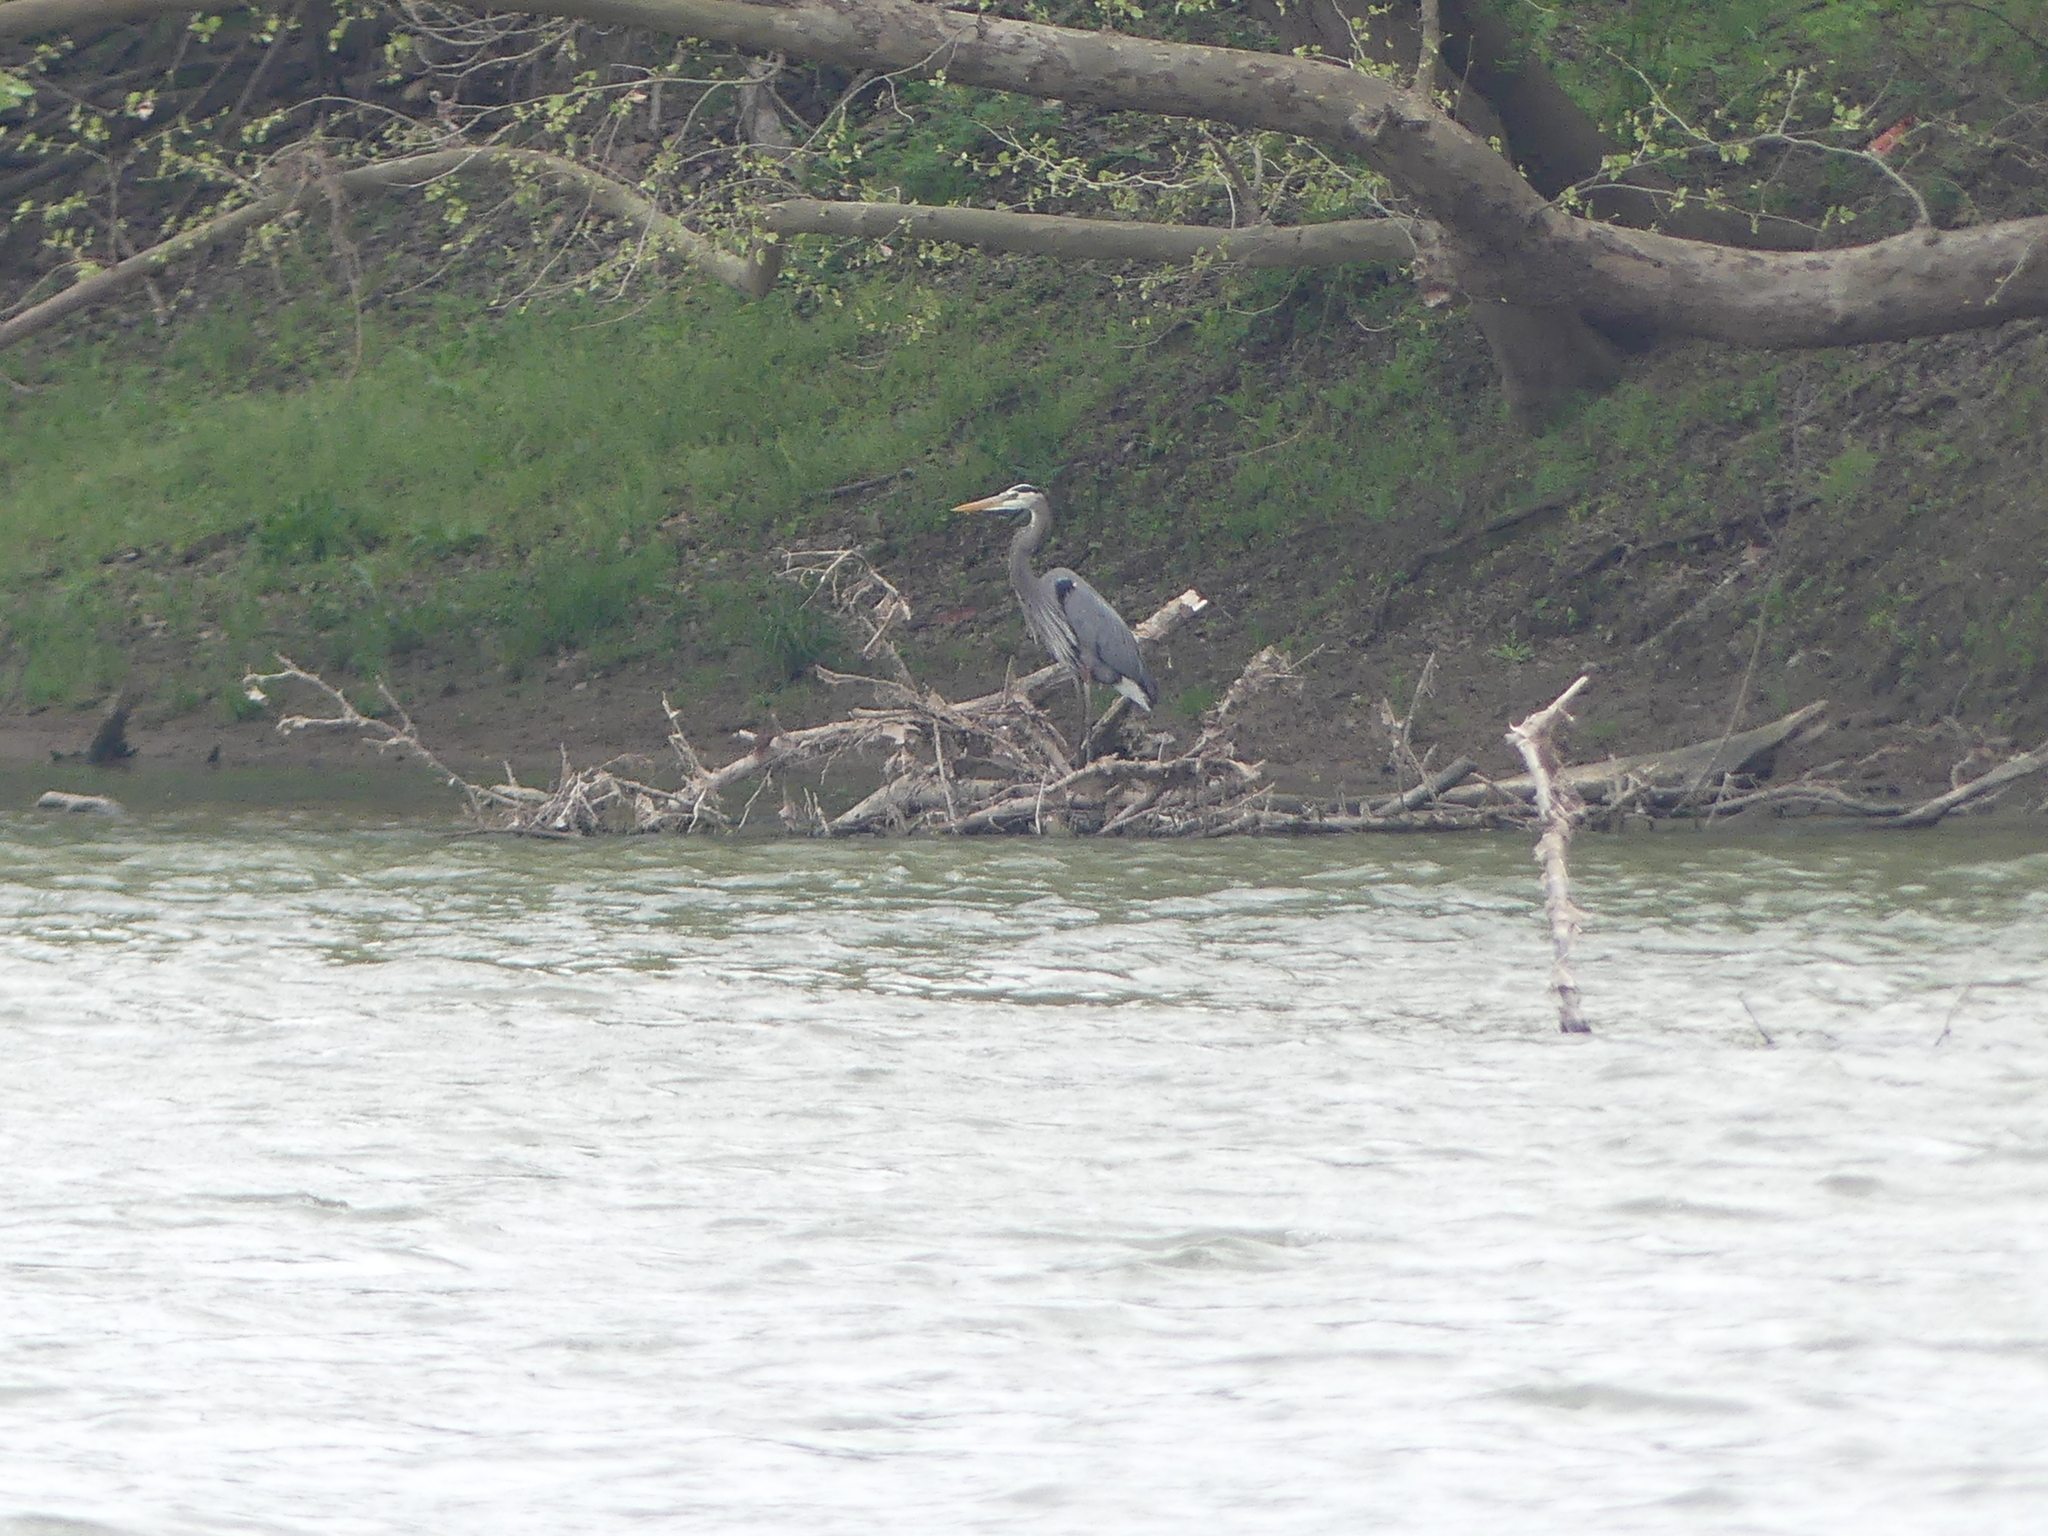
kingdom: Animalia
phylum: Chordata
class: Aves
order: Pelecaniformes
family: Ardeidae
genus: Ardea
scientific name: Ardea herodias
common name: Great blue heron
